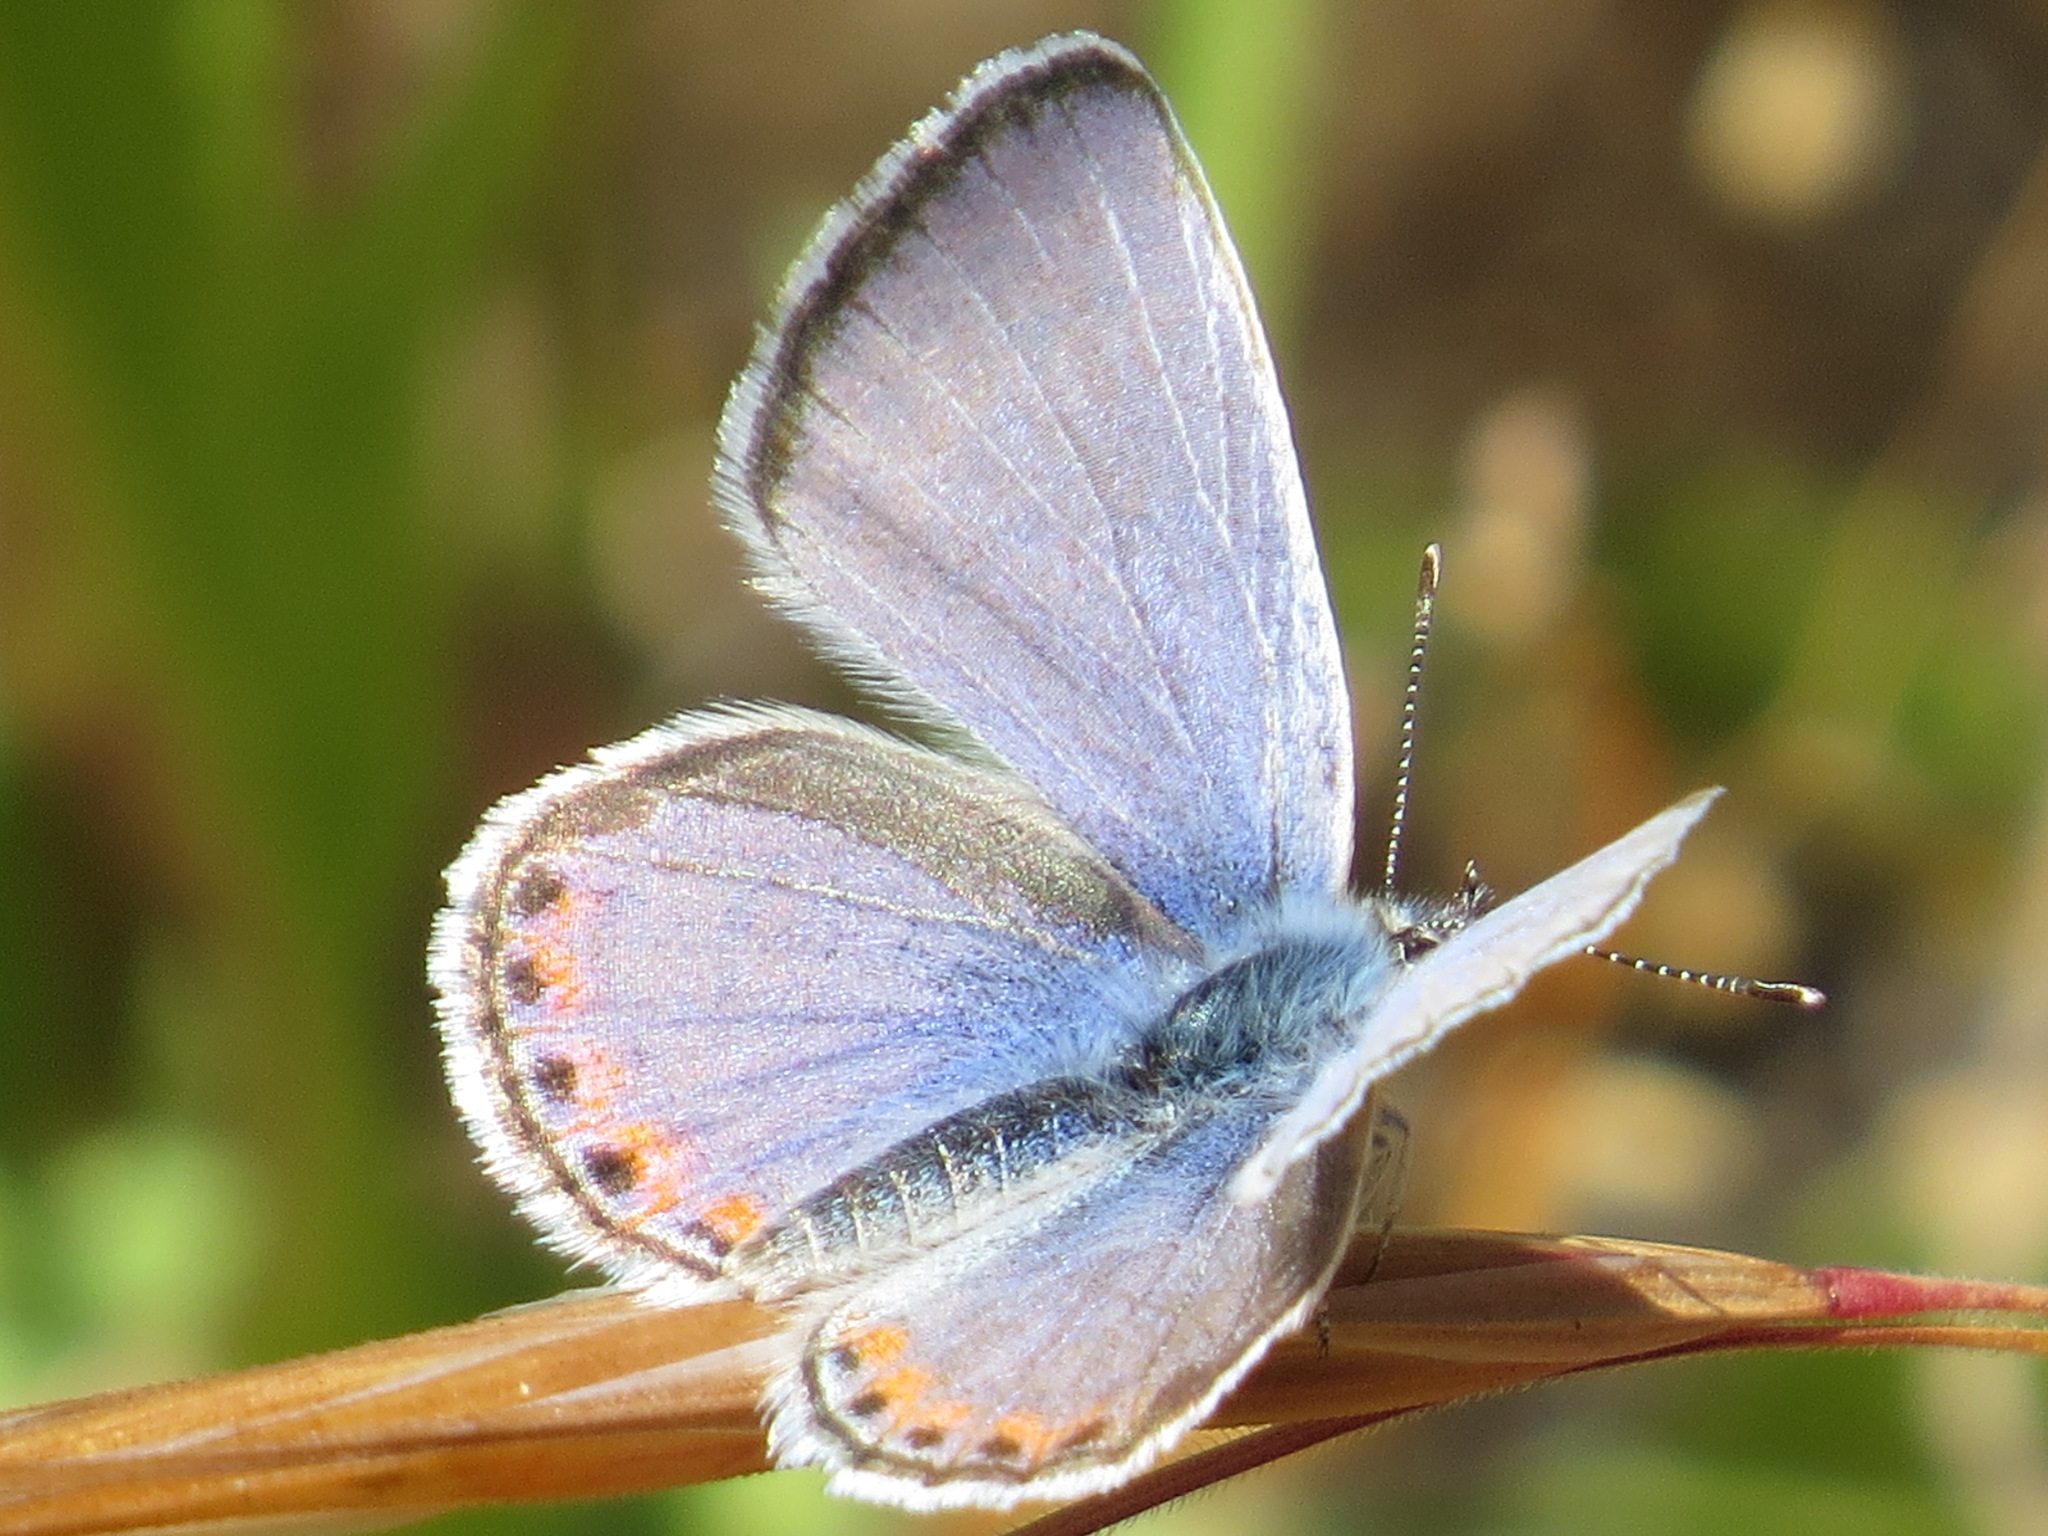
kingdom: Animalia
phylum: Arthropoda
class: Insecta
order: Lepidoptera
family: Lycaenidae
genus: Icaricia
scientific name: Icaricia acmon
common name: Acmon blue
